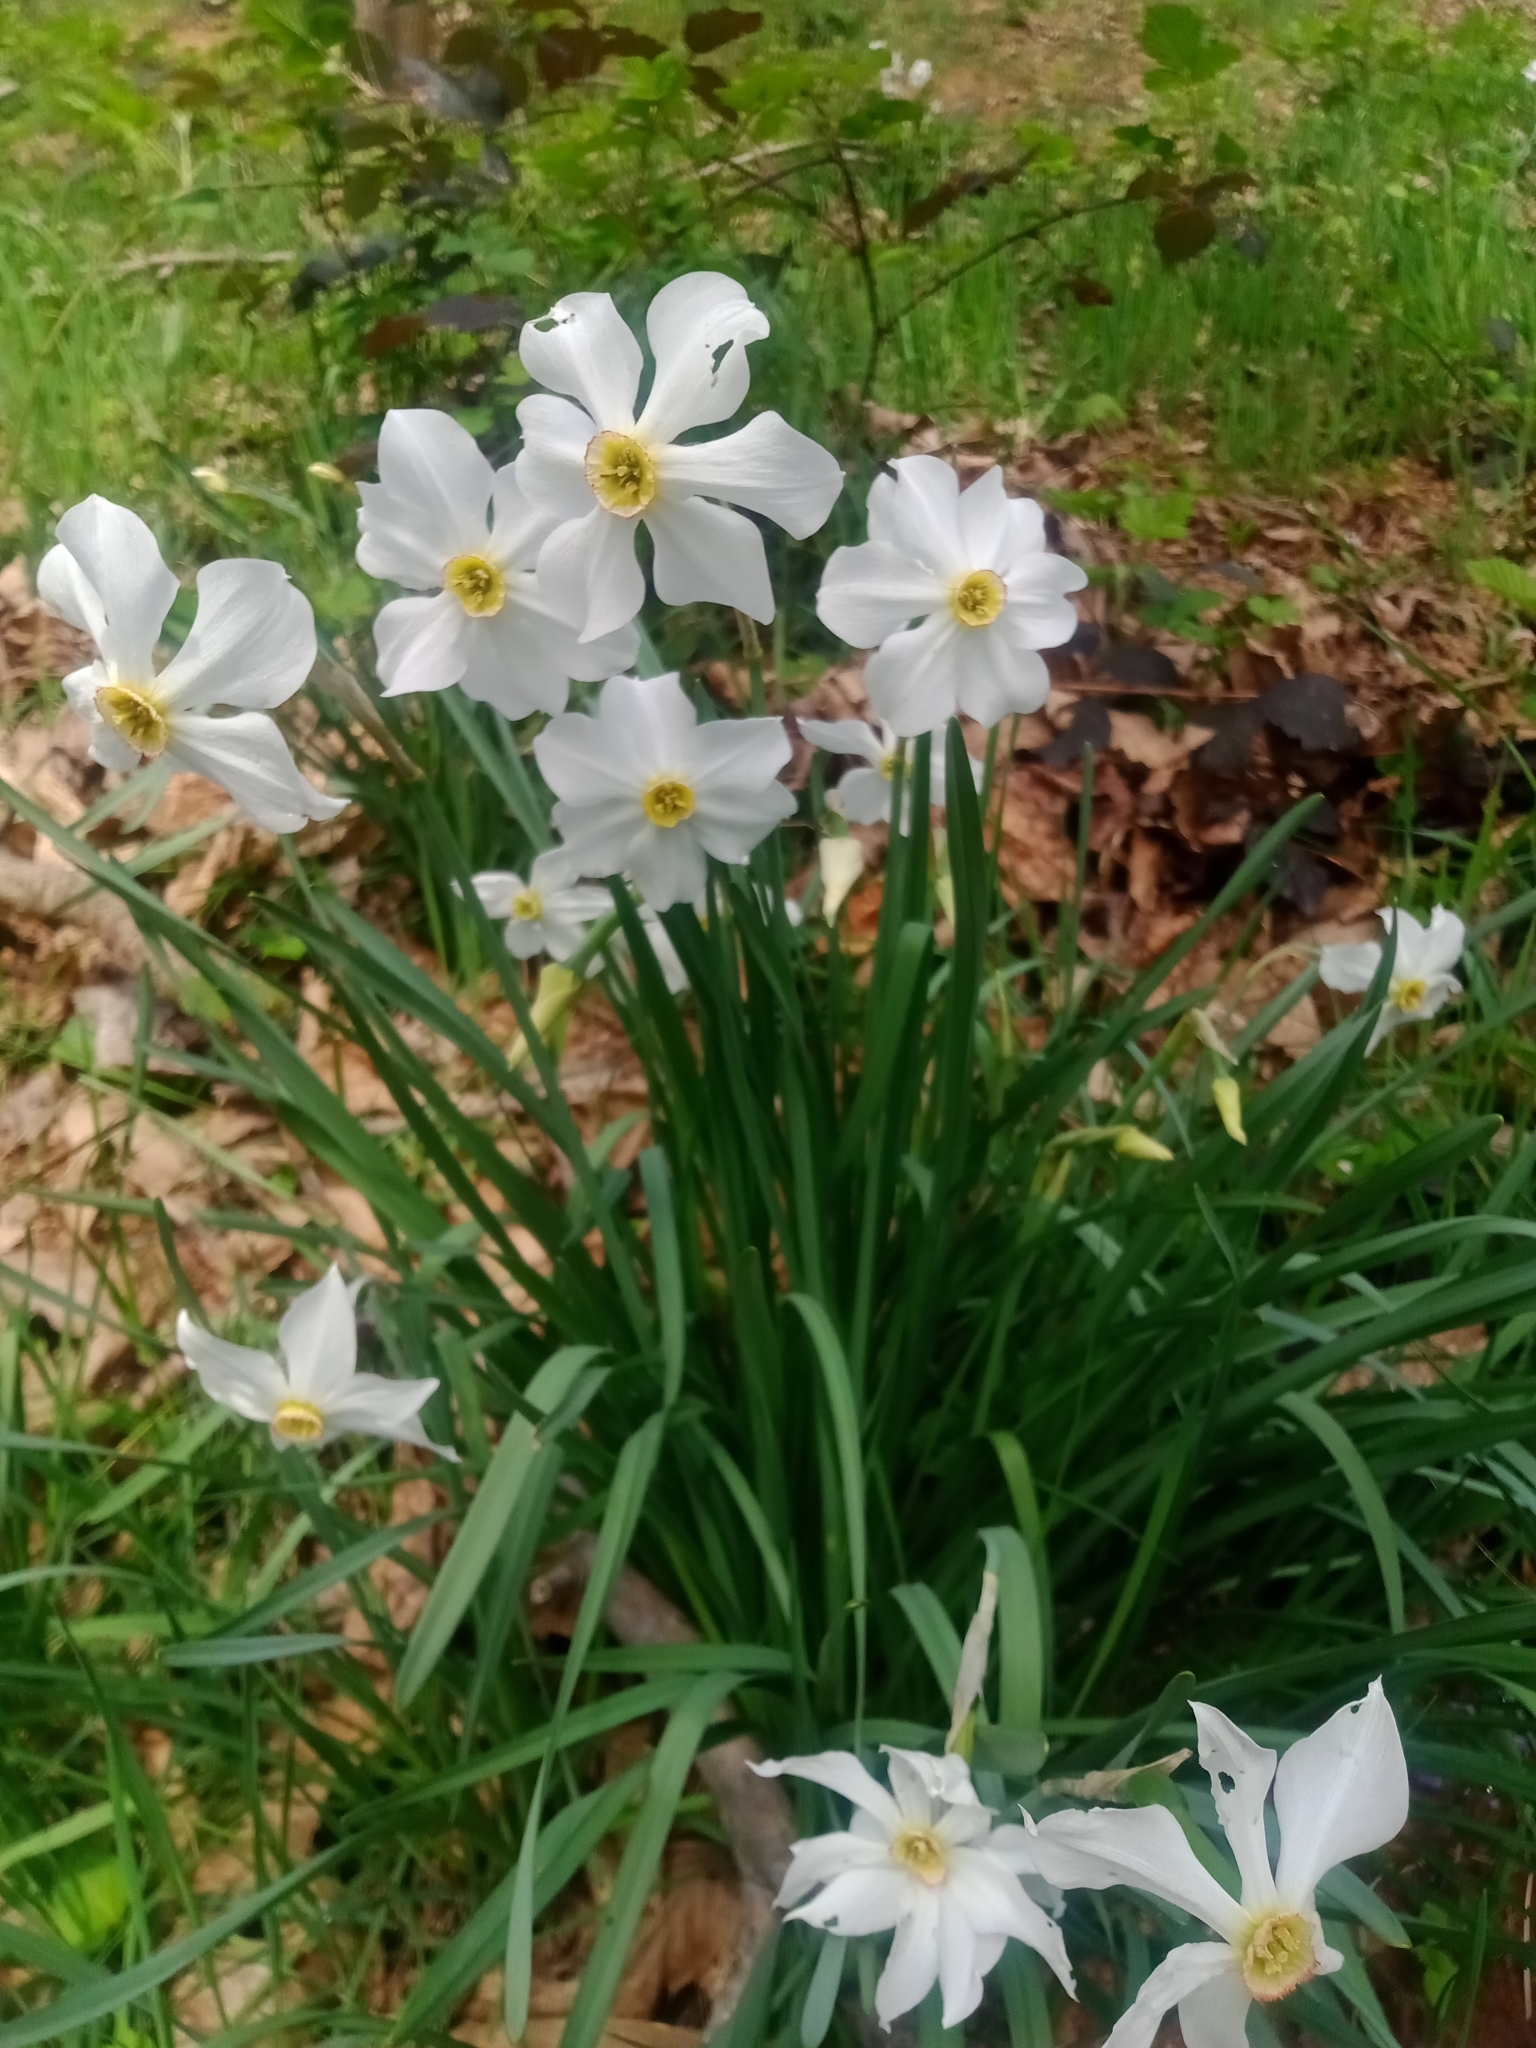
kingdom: Plantae
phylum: Tracheophyta
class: Liliopsida
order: Asparagales
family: Amaryllidaceae
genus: Narcissus
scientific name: Narcissus poeticus
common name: Pheasant's-eye daffodil
